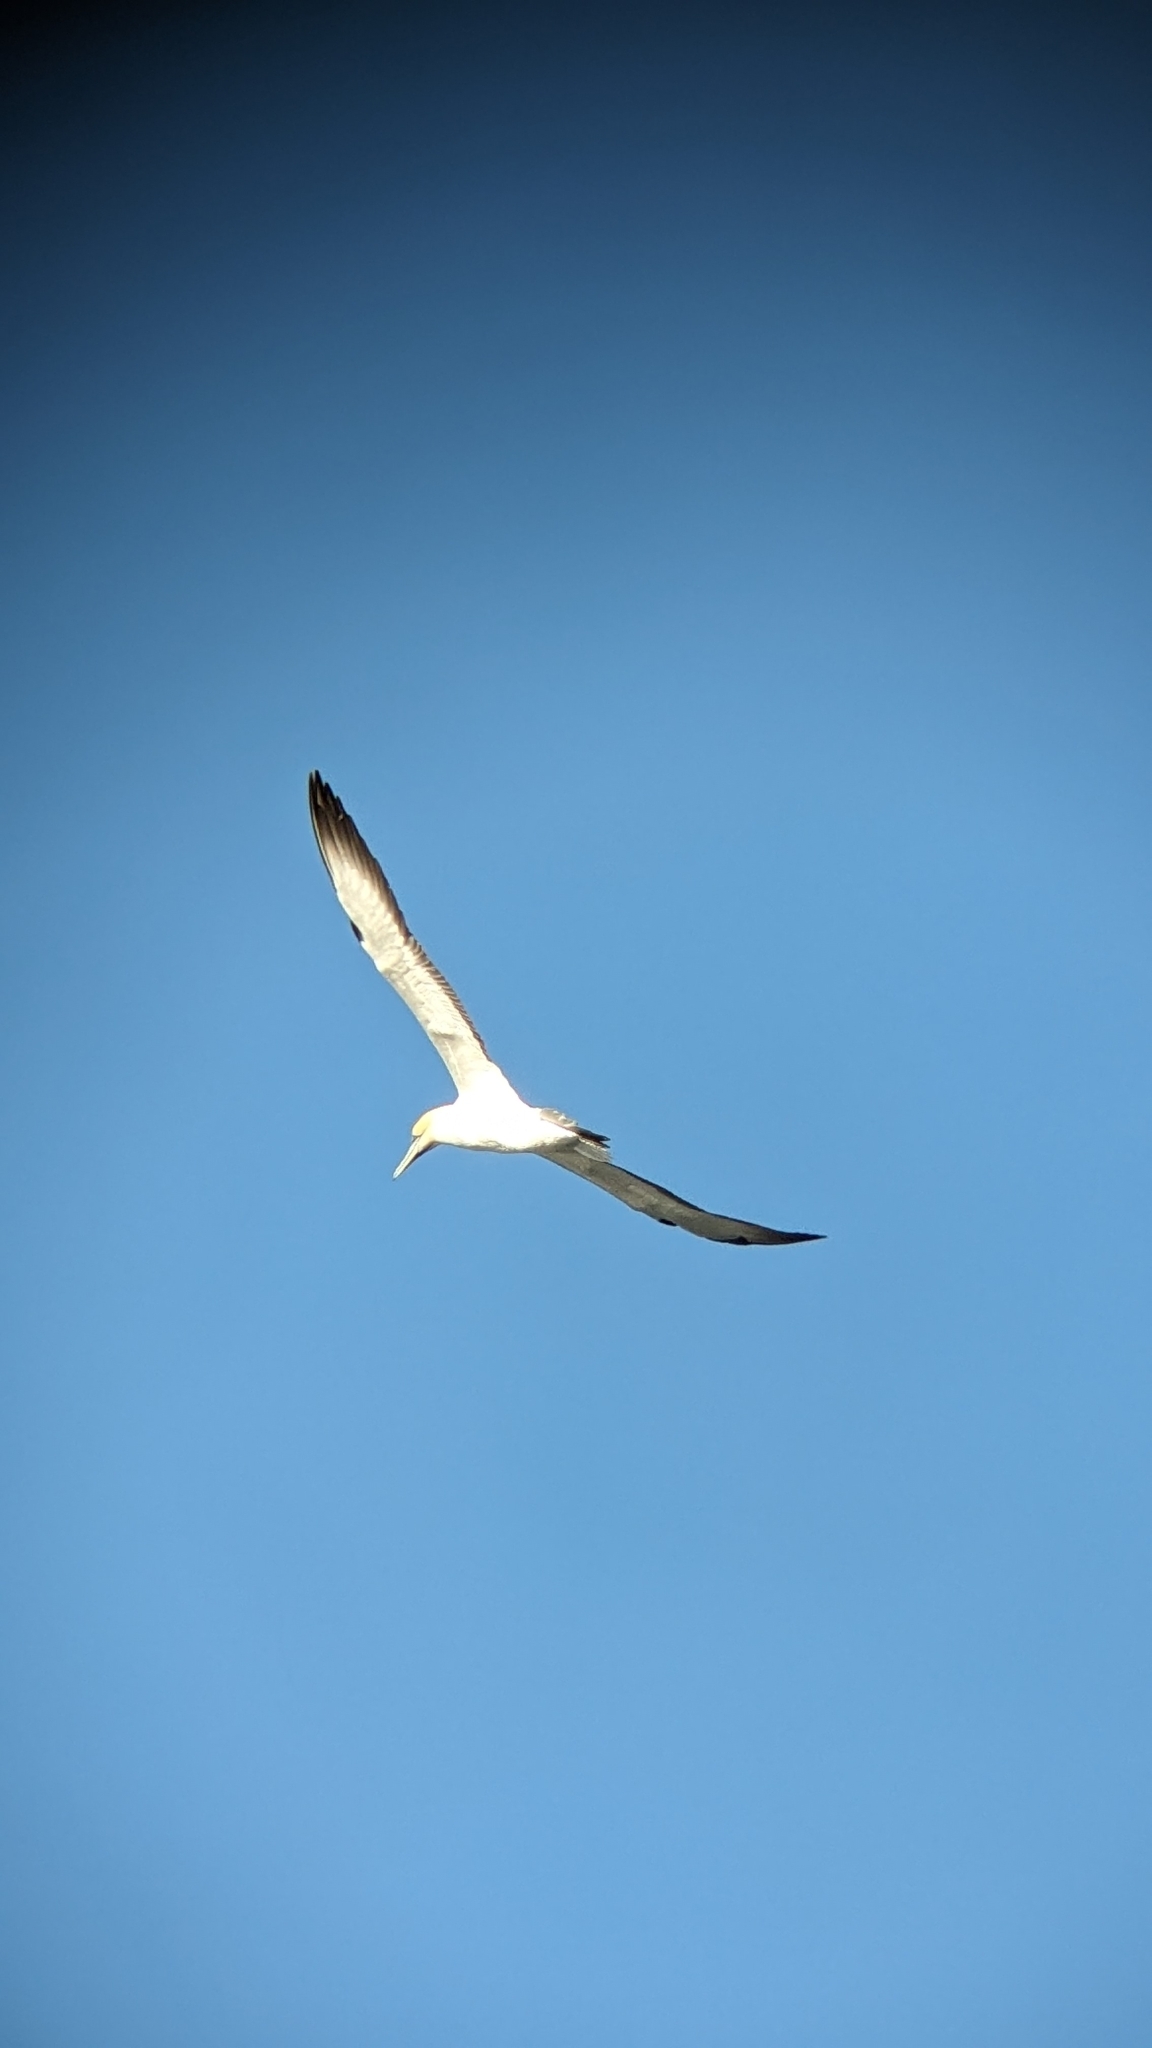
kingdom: Animalia
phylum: Chordata
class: Aves
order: Suliformes
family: Sulidae
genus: Morus
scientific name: Morus serrator
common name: Australasian gannet
